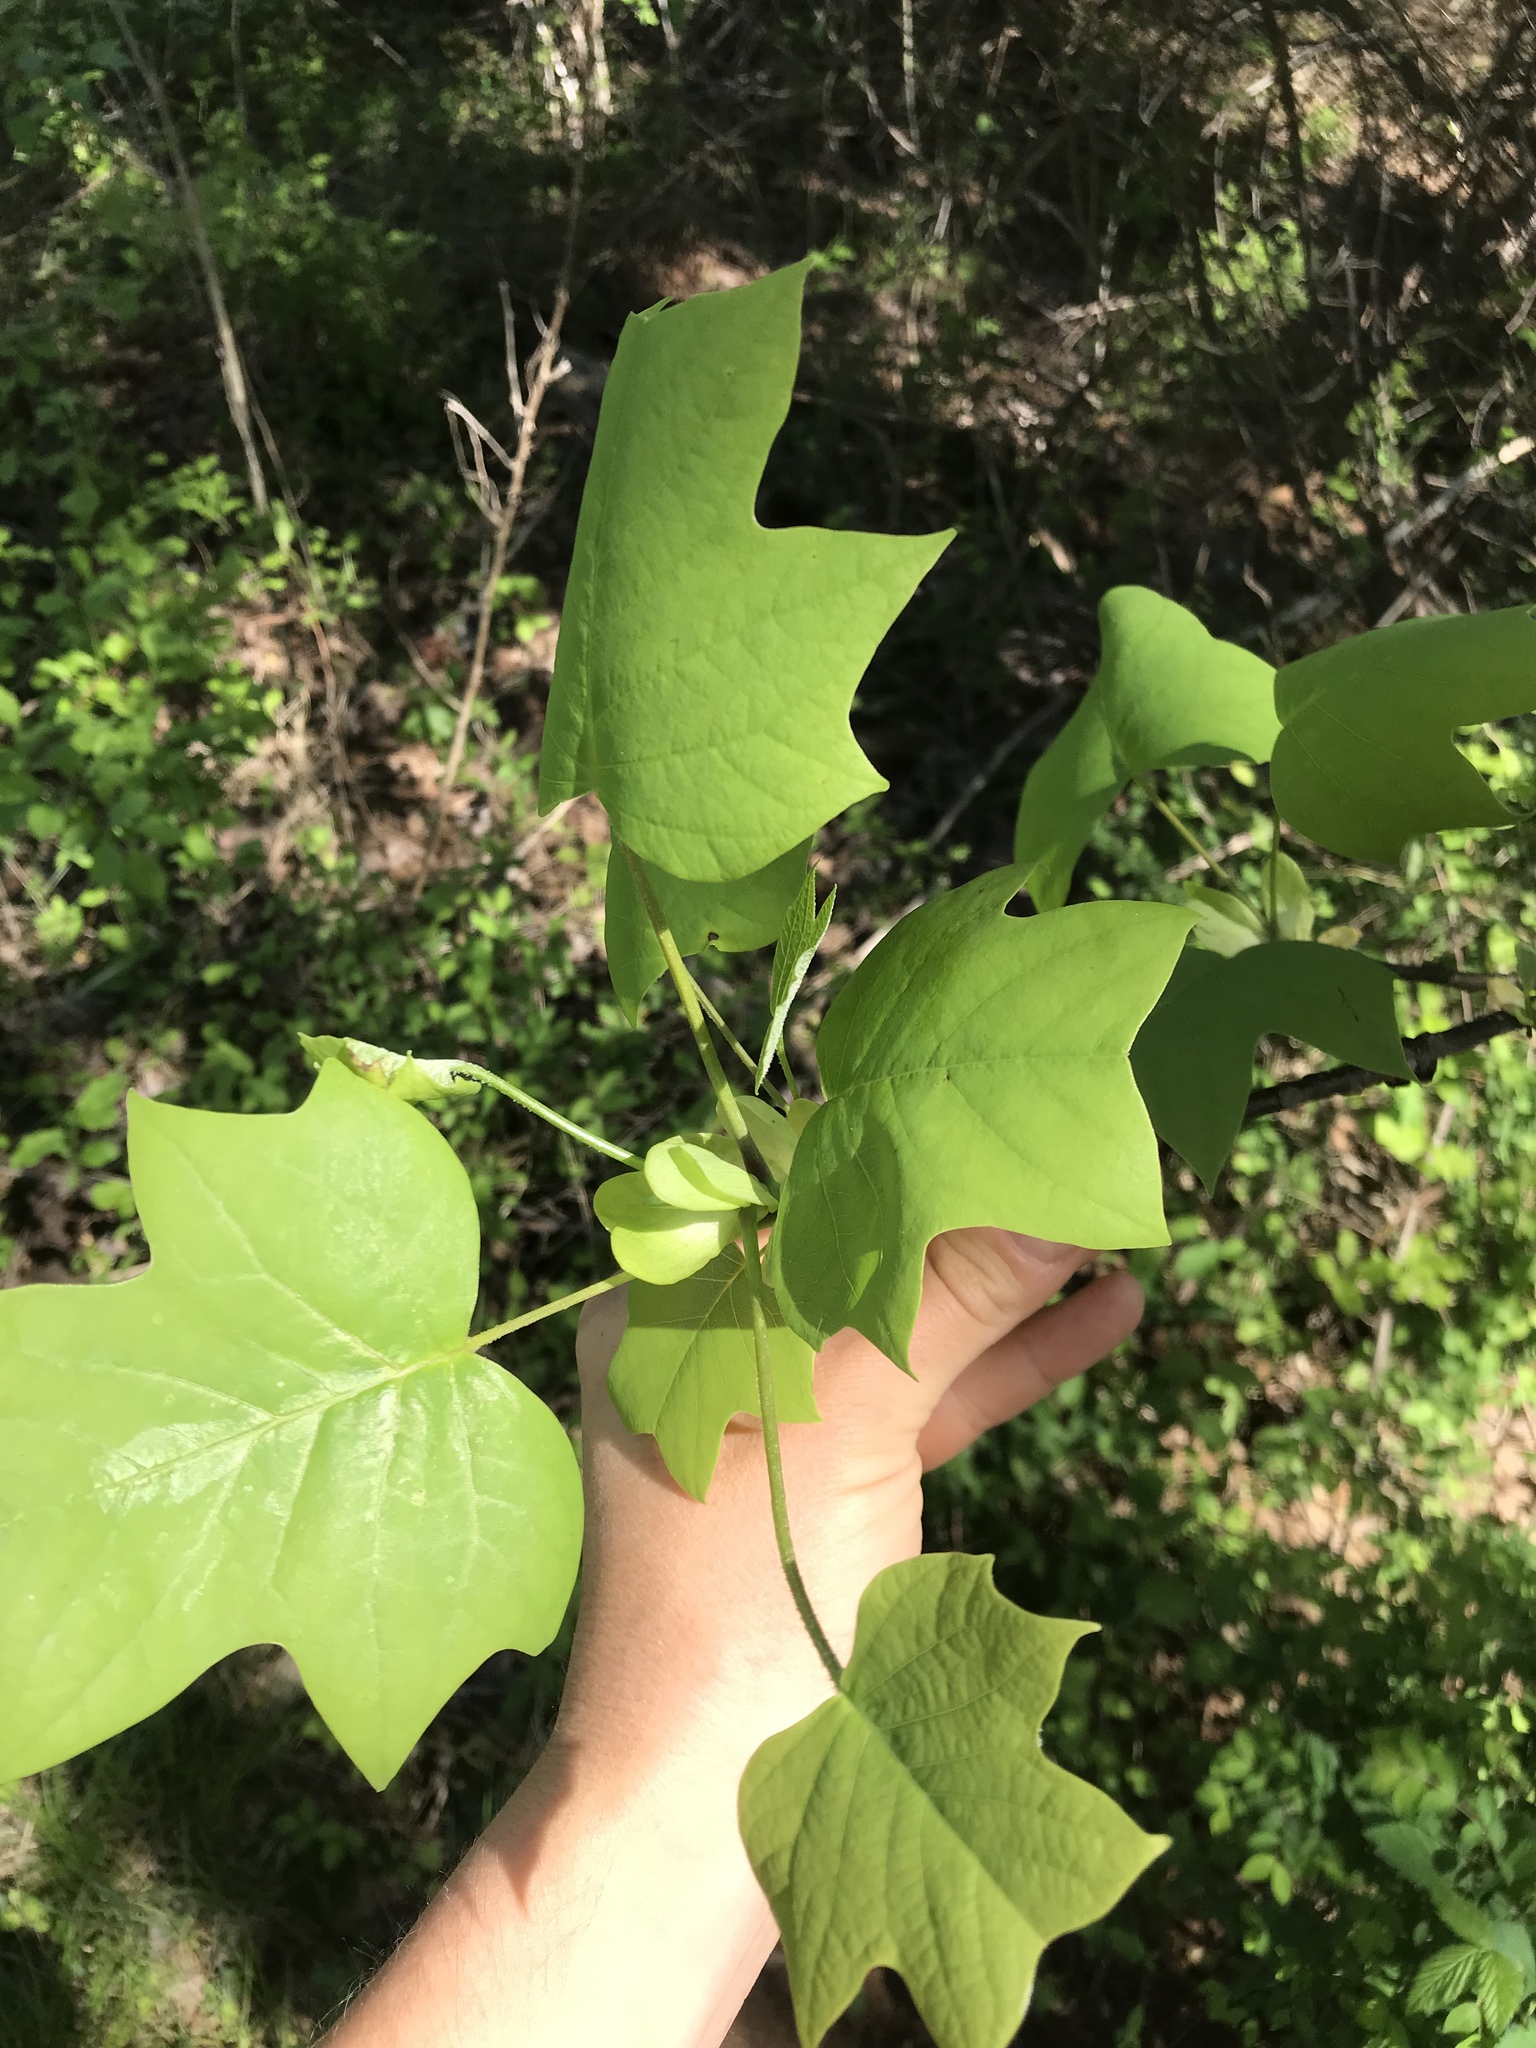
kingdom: Plantae
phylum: Tracheophyta
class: Magnoliopsida
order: Magnoliales
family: Magnoliaceae
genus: Liriodendron
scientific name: Liriodendron tulipifera
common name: Tulip tree
